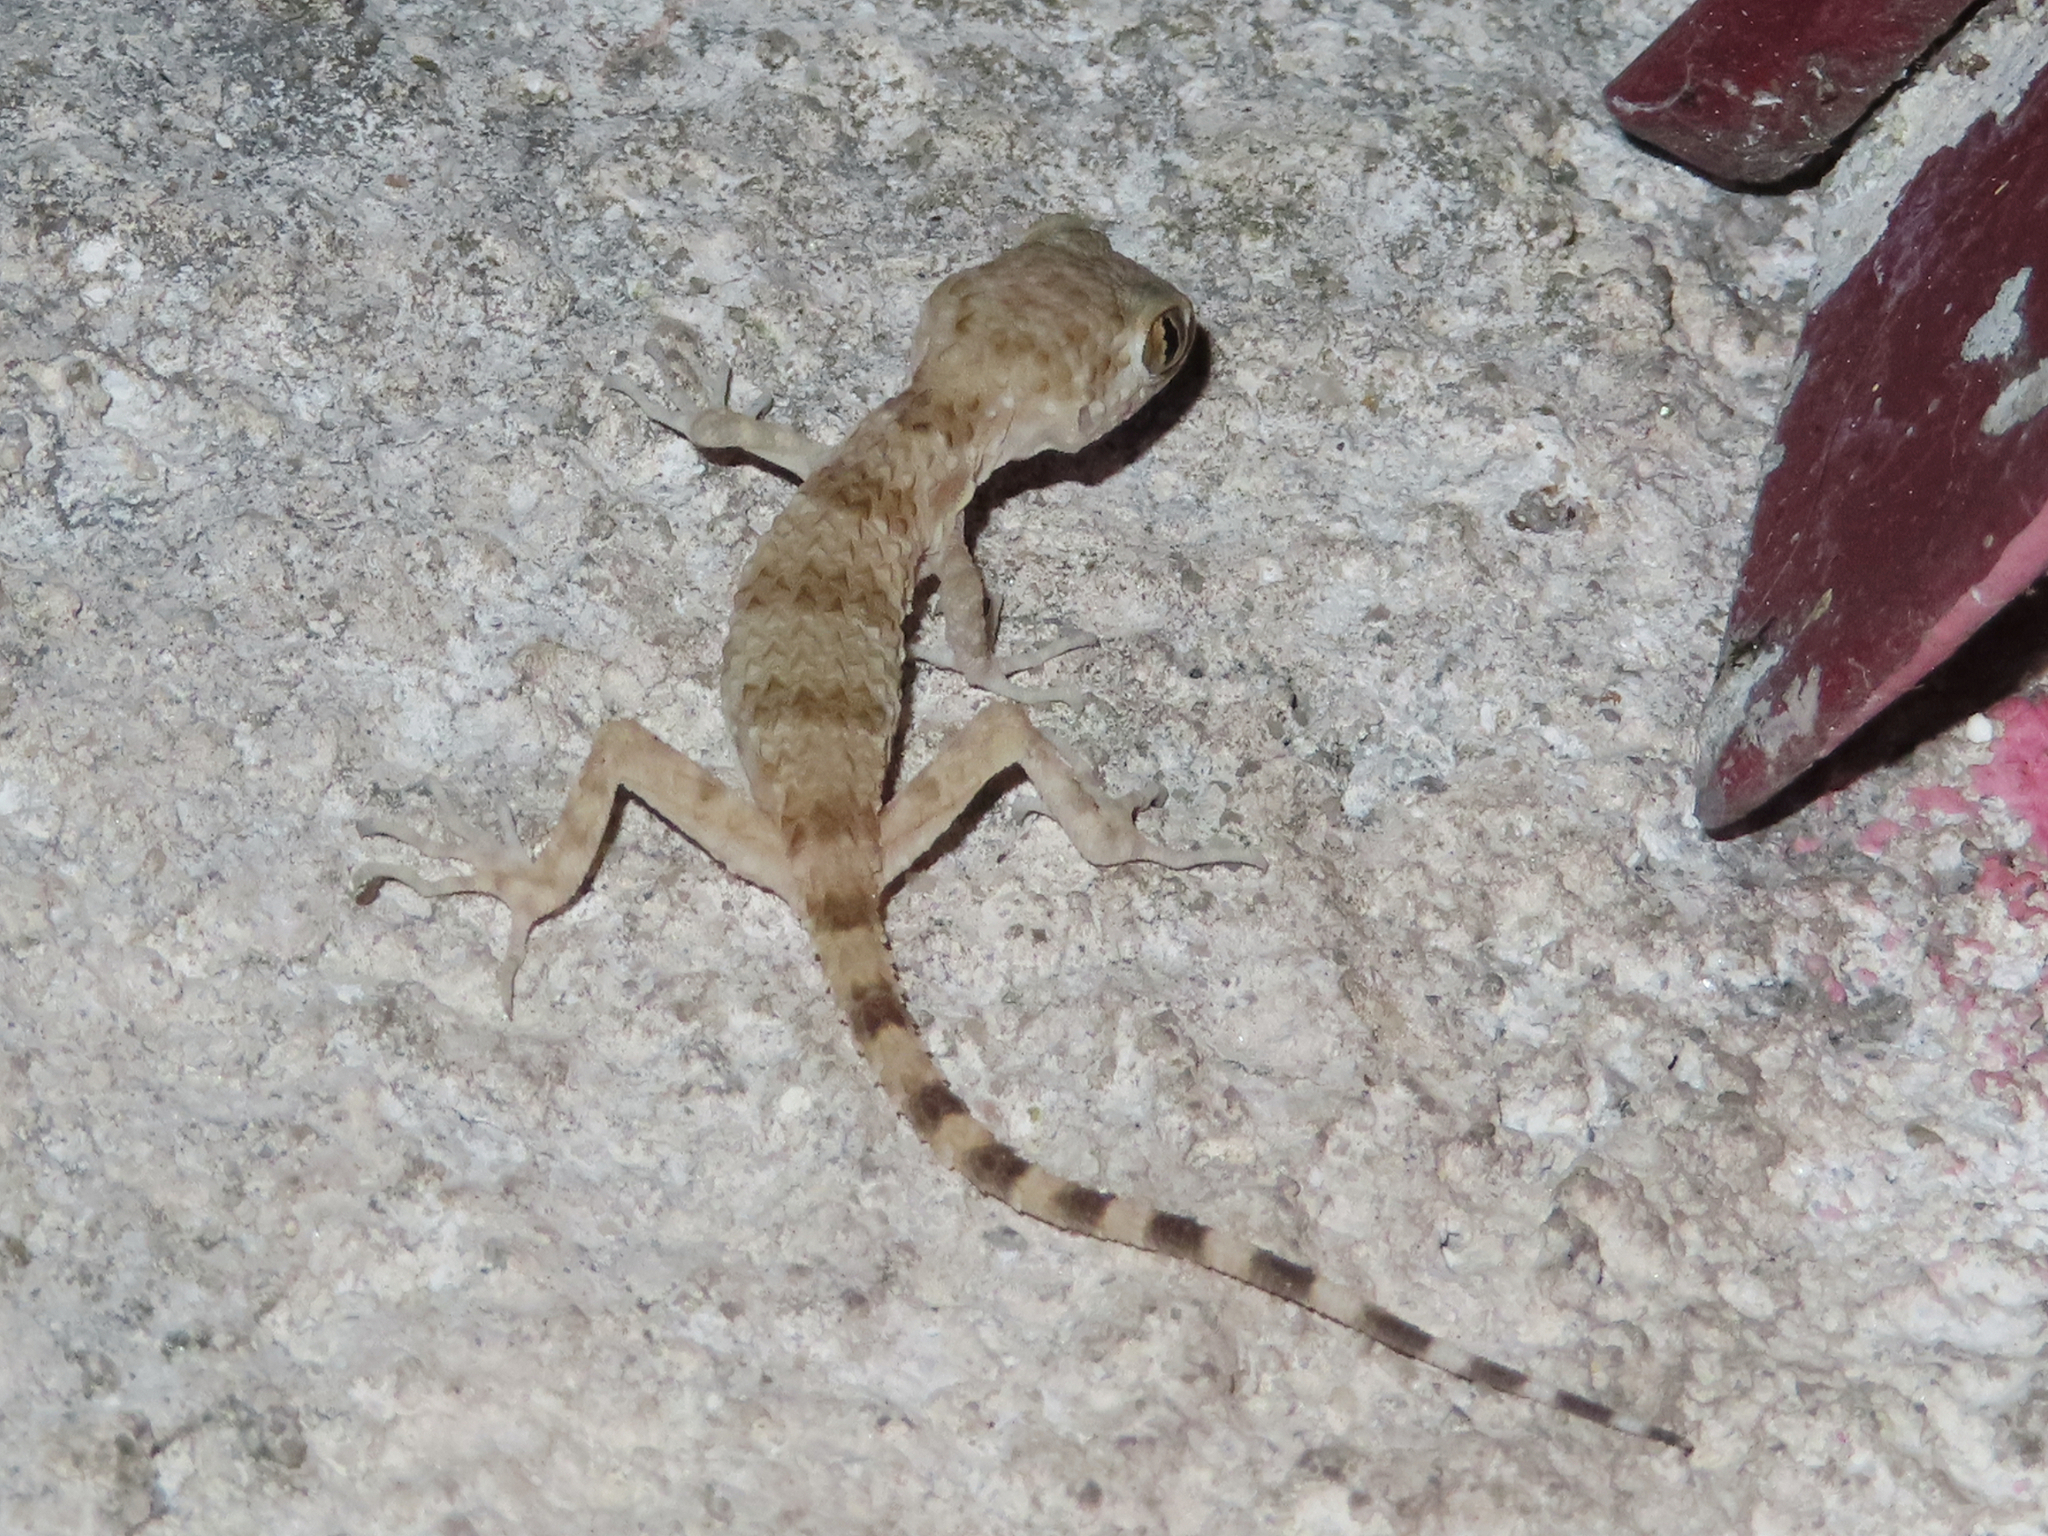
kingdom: Animalia
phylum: Chordata
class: Squamata
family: Gekkonidae
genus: Tenuidactylus
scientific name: Tenuidactylus caspius
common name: Caspian bent-toed gecko
